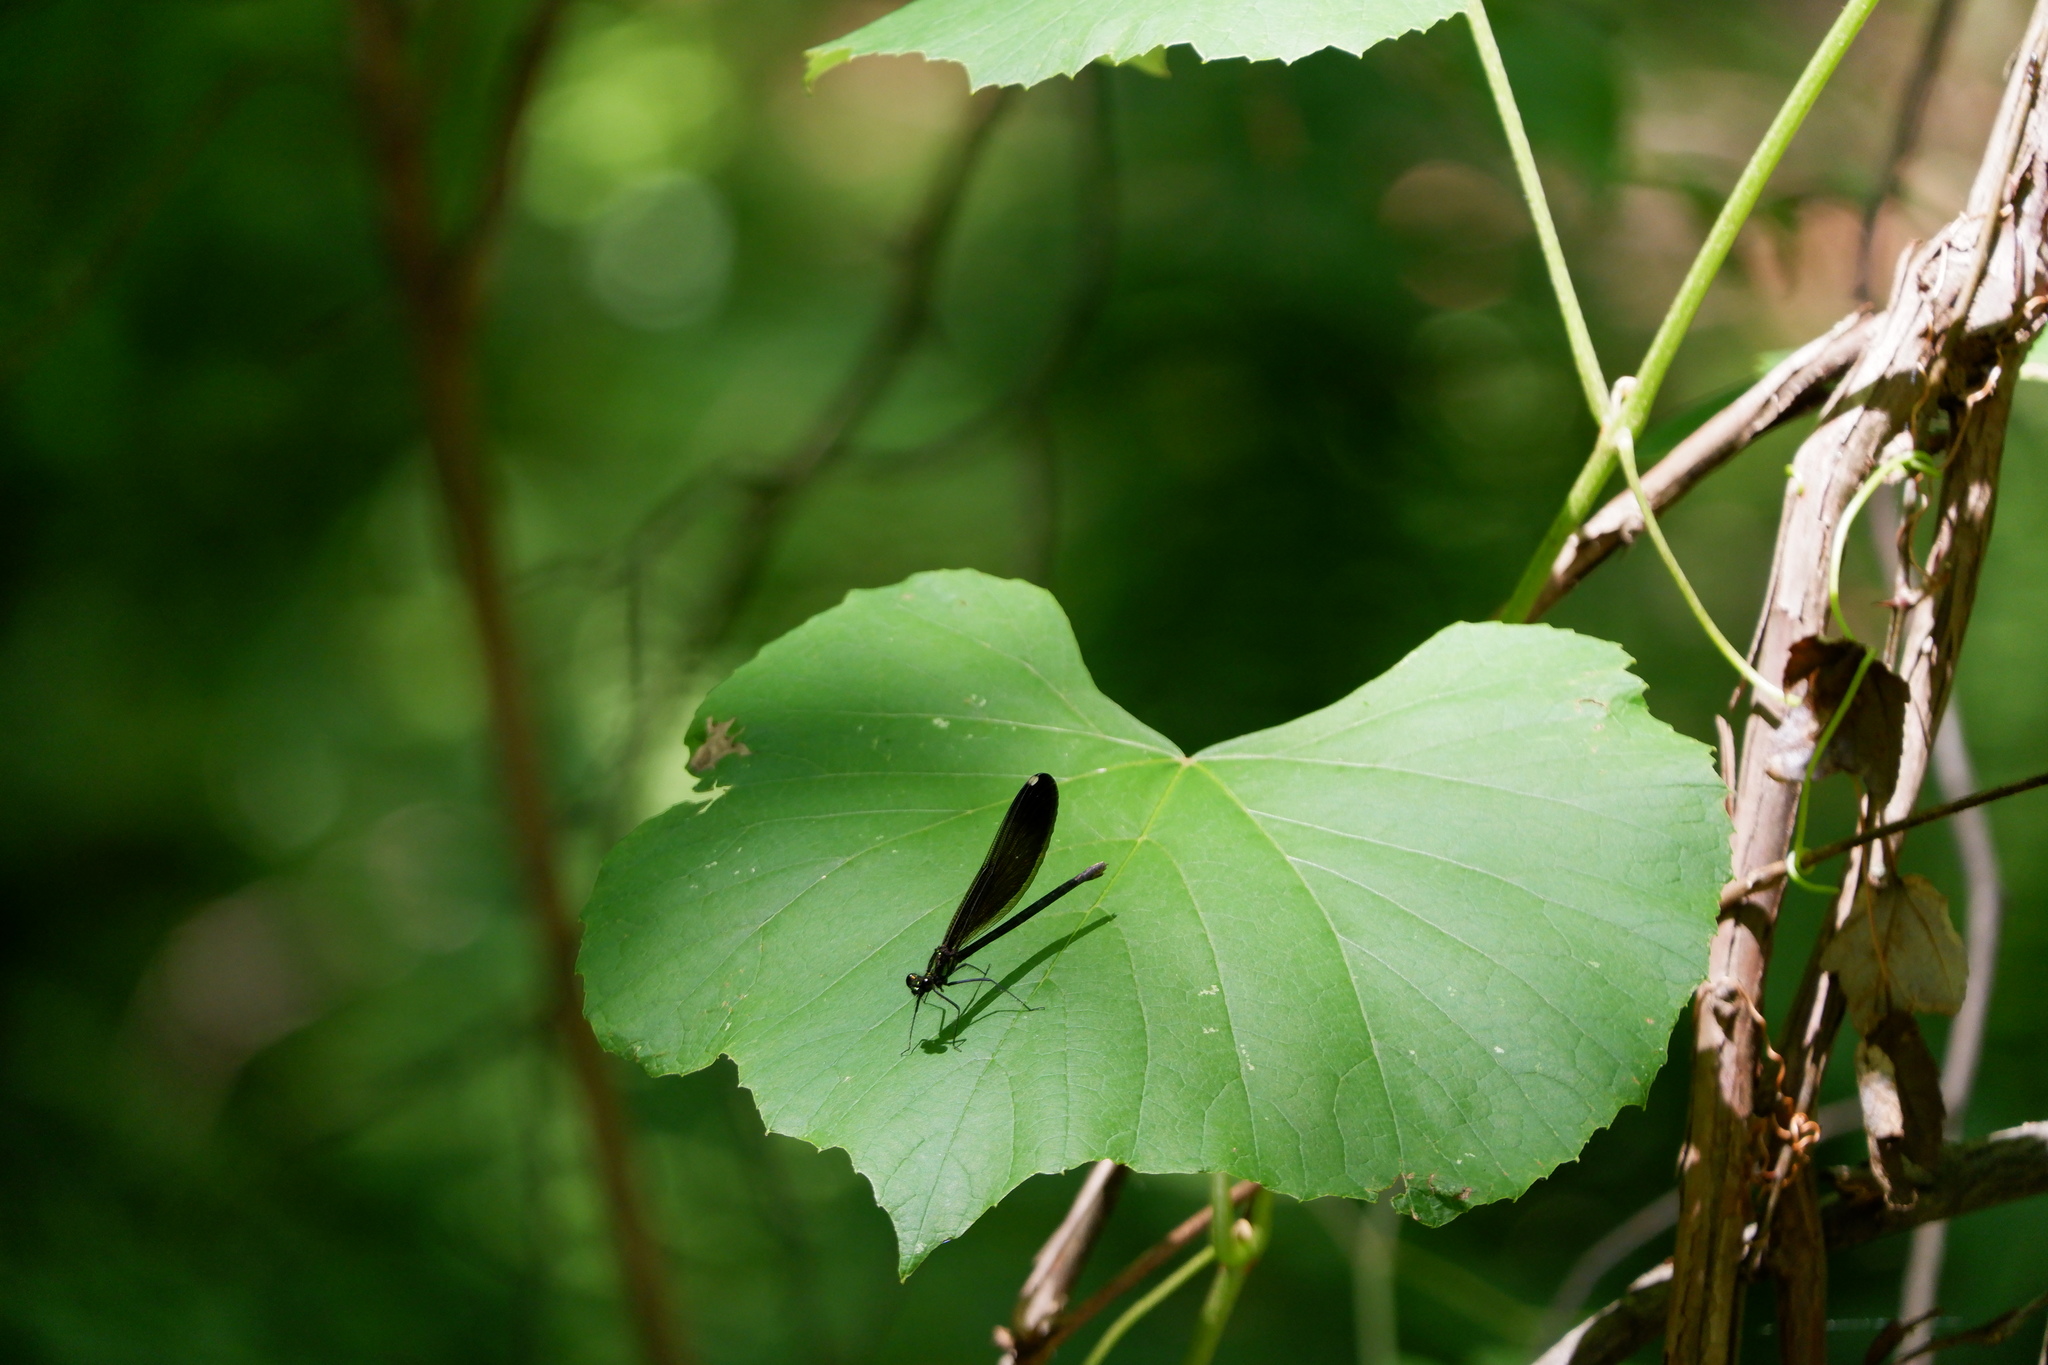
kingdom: Animalia
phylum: Arthropoda
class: Insecta
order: Odonata
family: Calopterygidae
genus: Calopteryx
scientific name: Calopteryx maculata
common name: Ebony jewelwing
